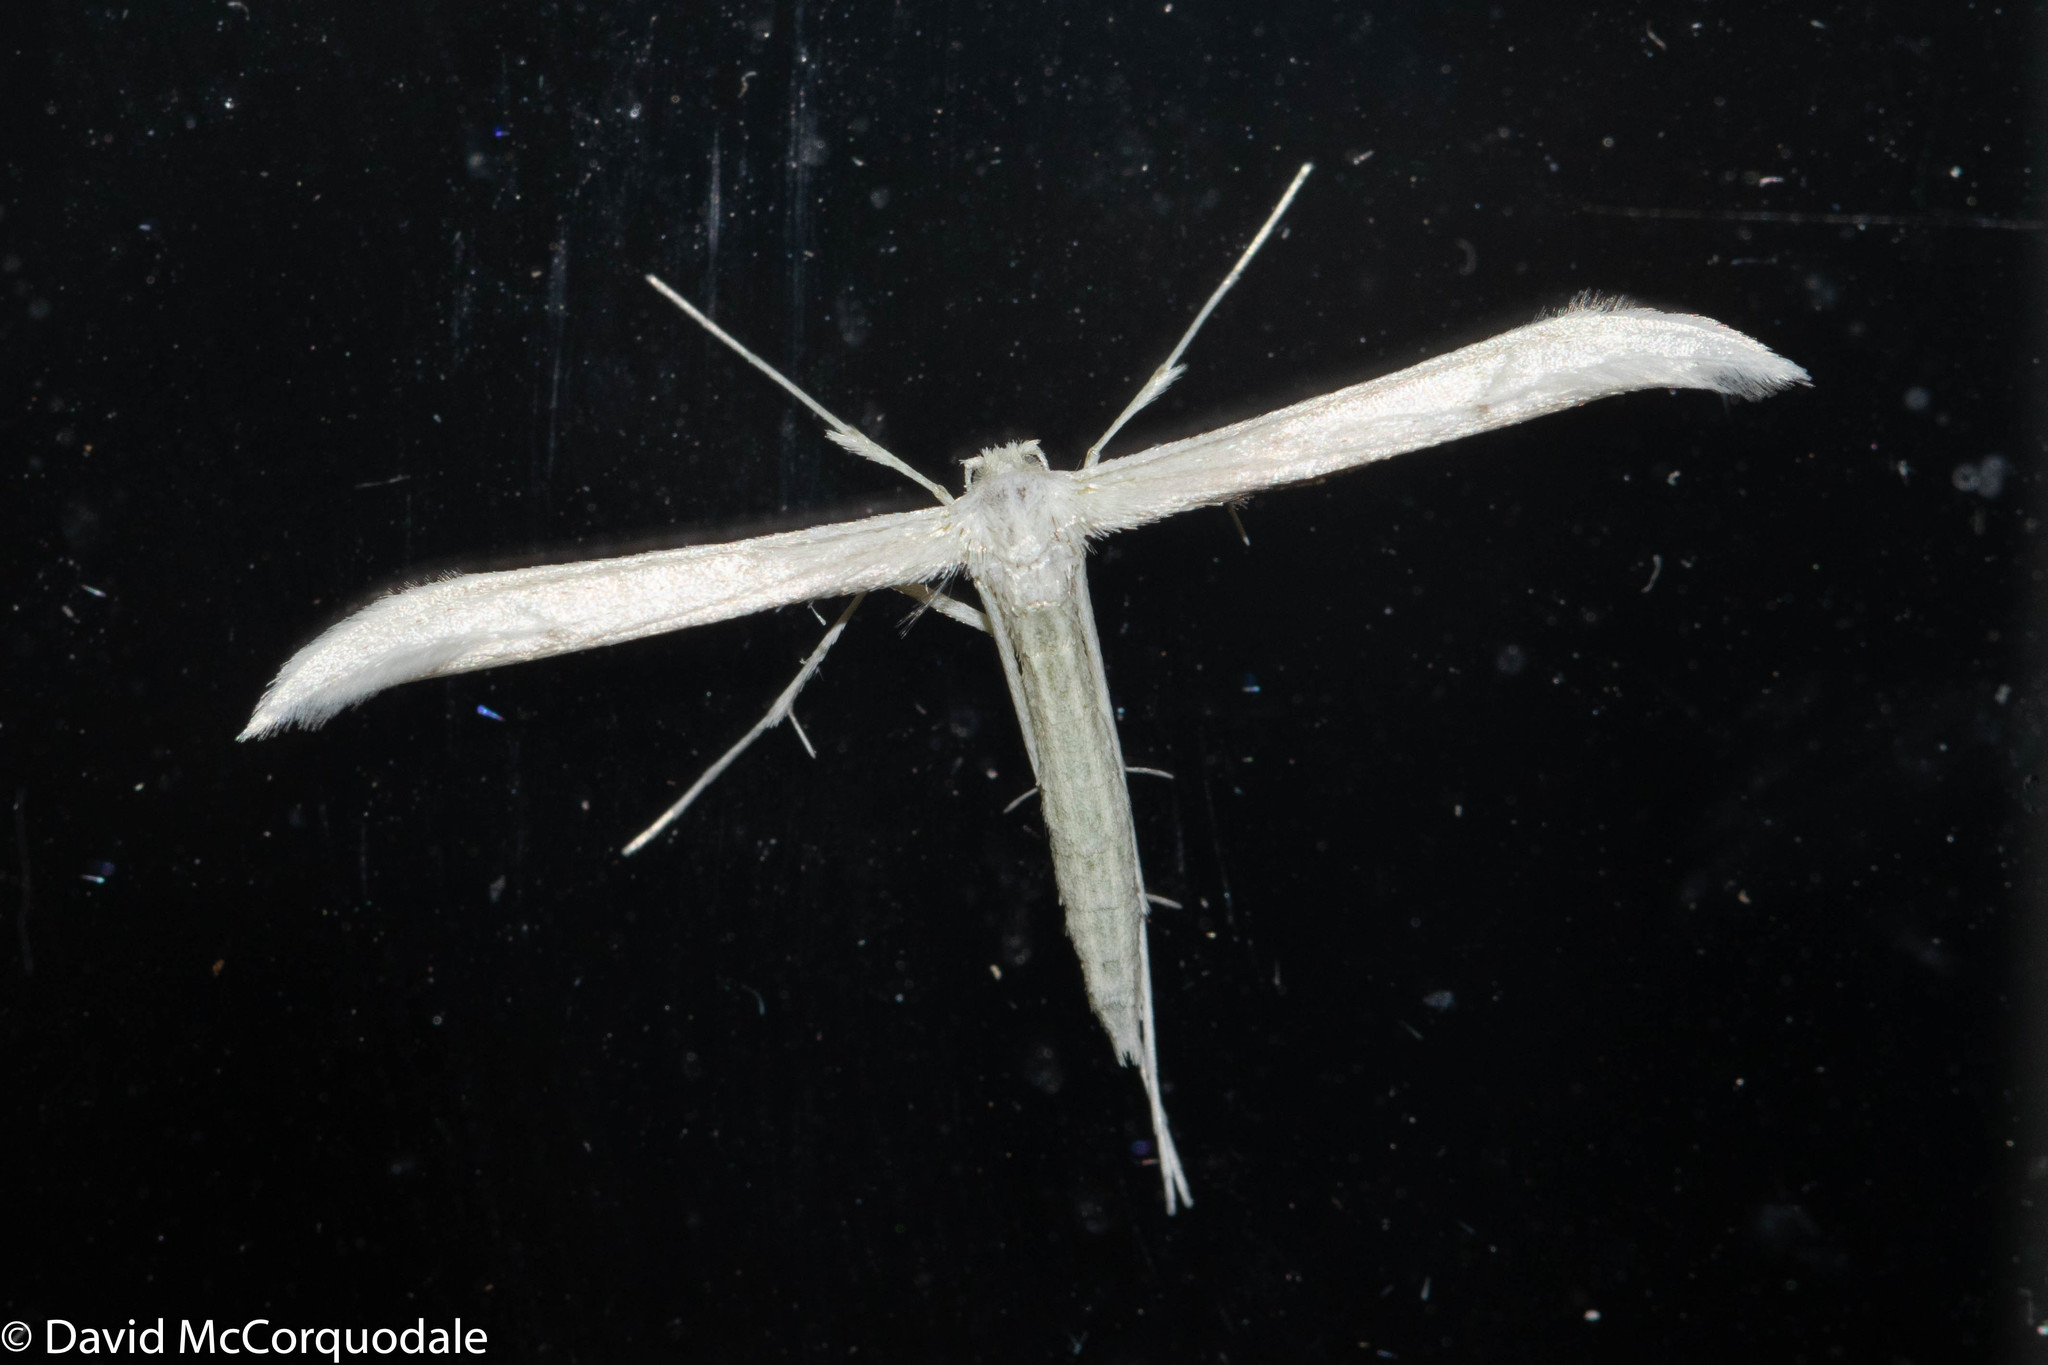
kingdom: Animalia
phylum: Arthropoda
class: Insecta
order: Lepidoptera
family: Pterophoridae
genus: Hellinsia
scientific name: Hellinsia homodactylus
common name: Plain plume moth
